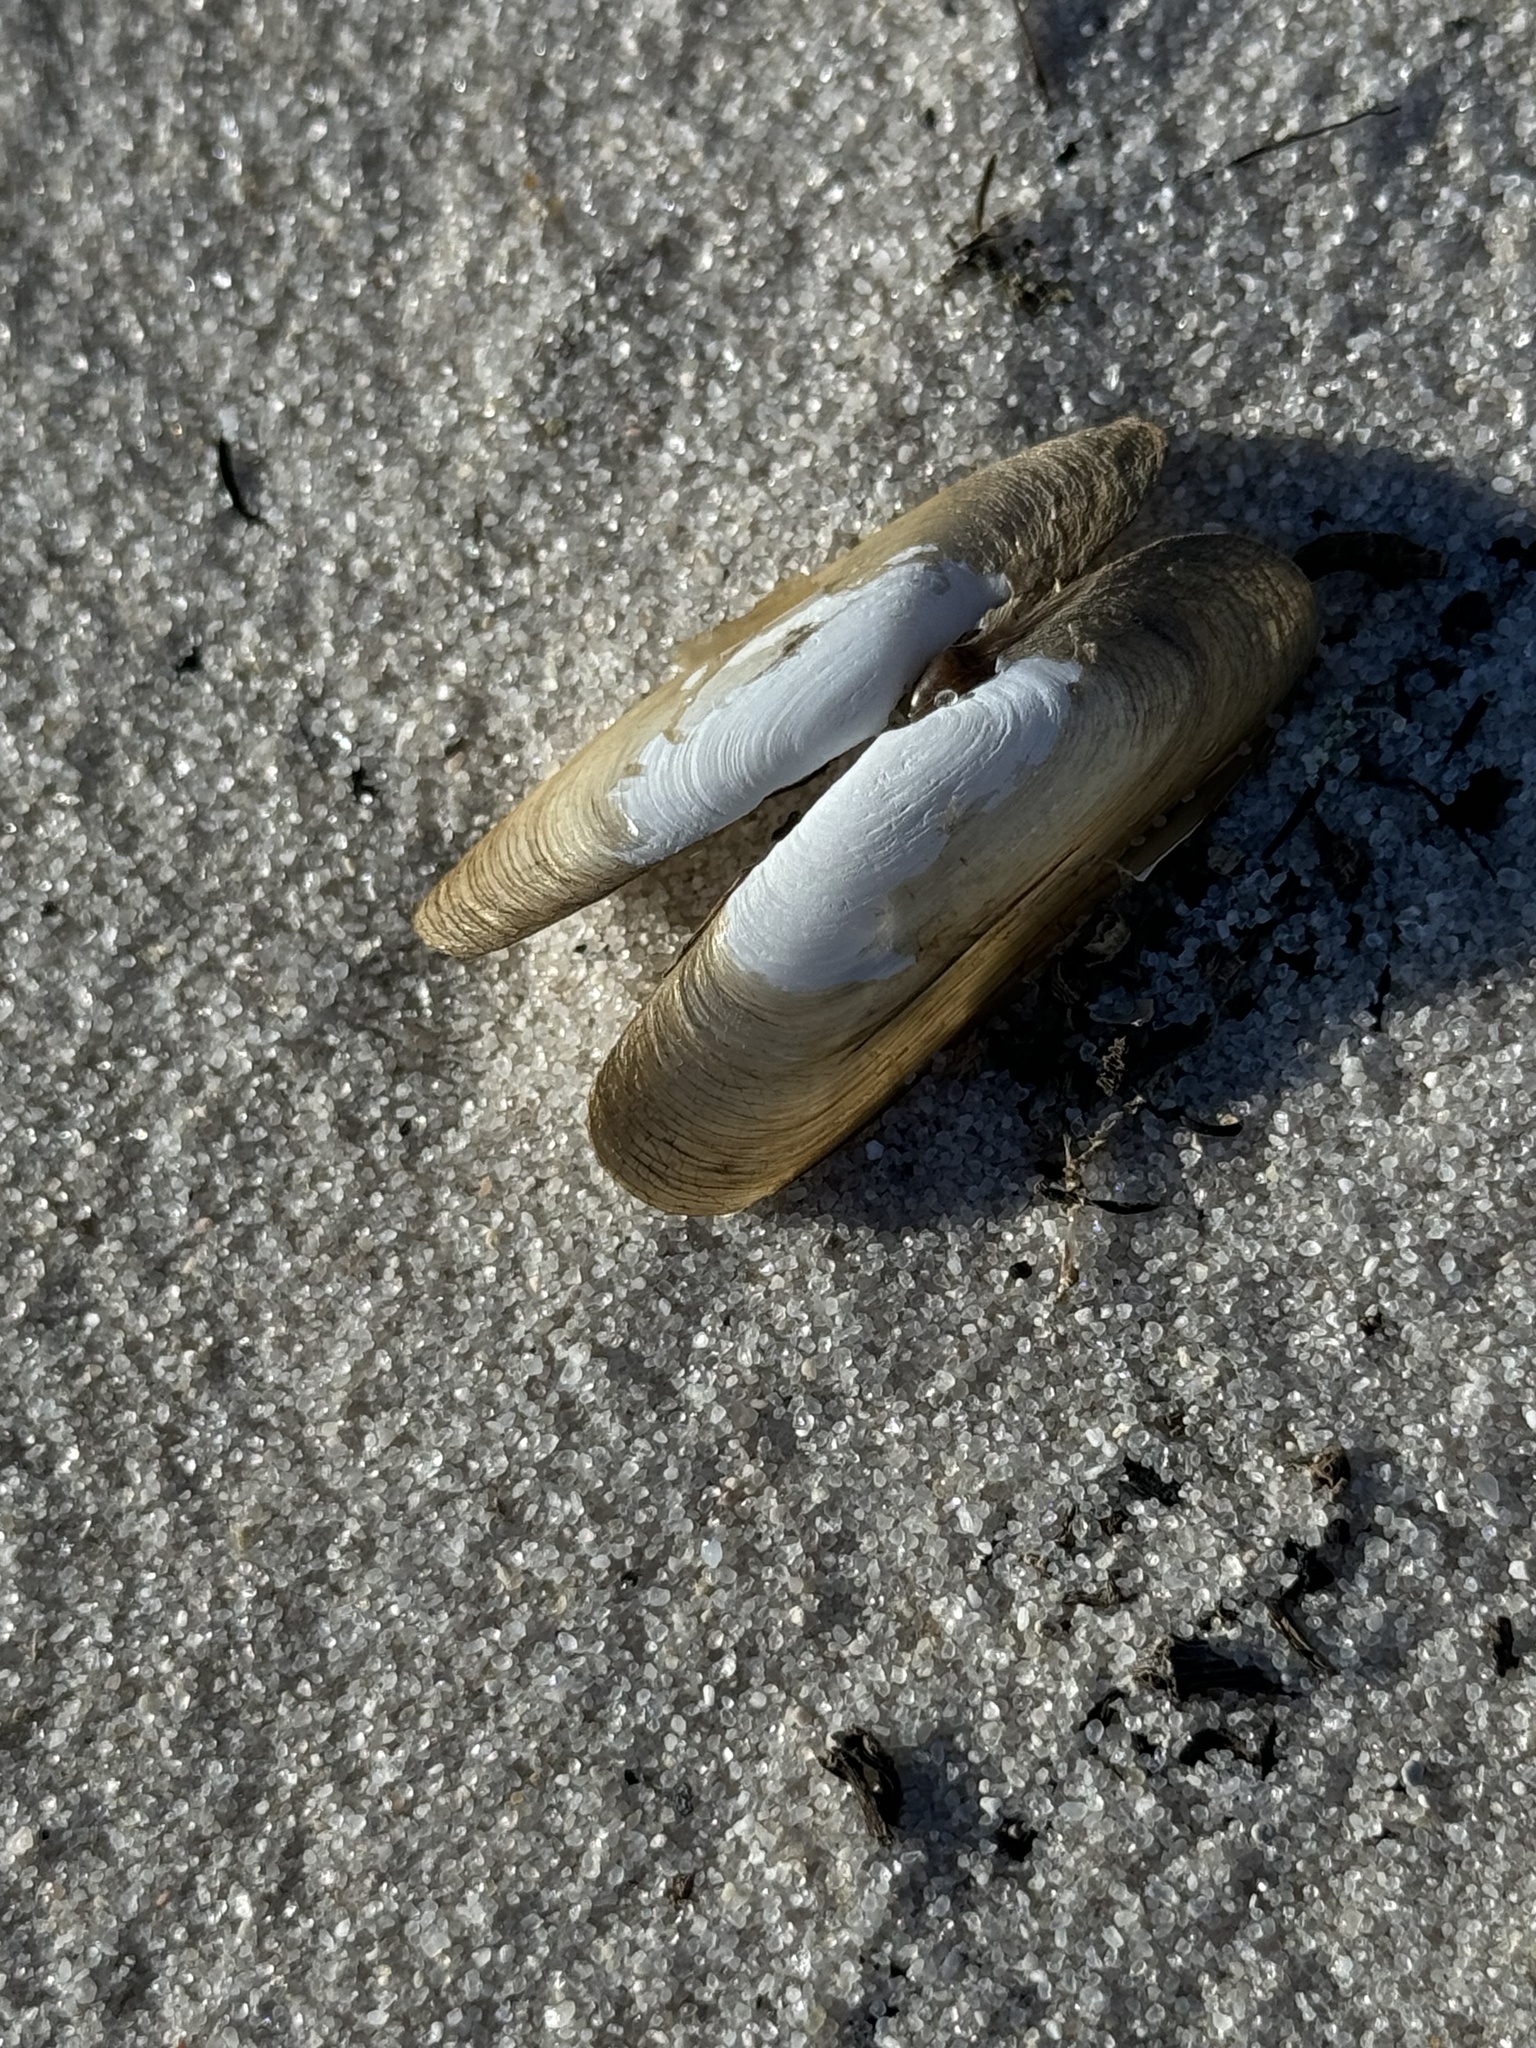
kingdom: Animalia
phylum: Mollusca
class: Bivalvia
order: Cardiida
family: Solecurtidae
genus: Tagelus
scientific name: Tagelus plebeius
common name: Stout tagelus
